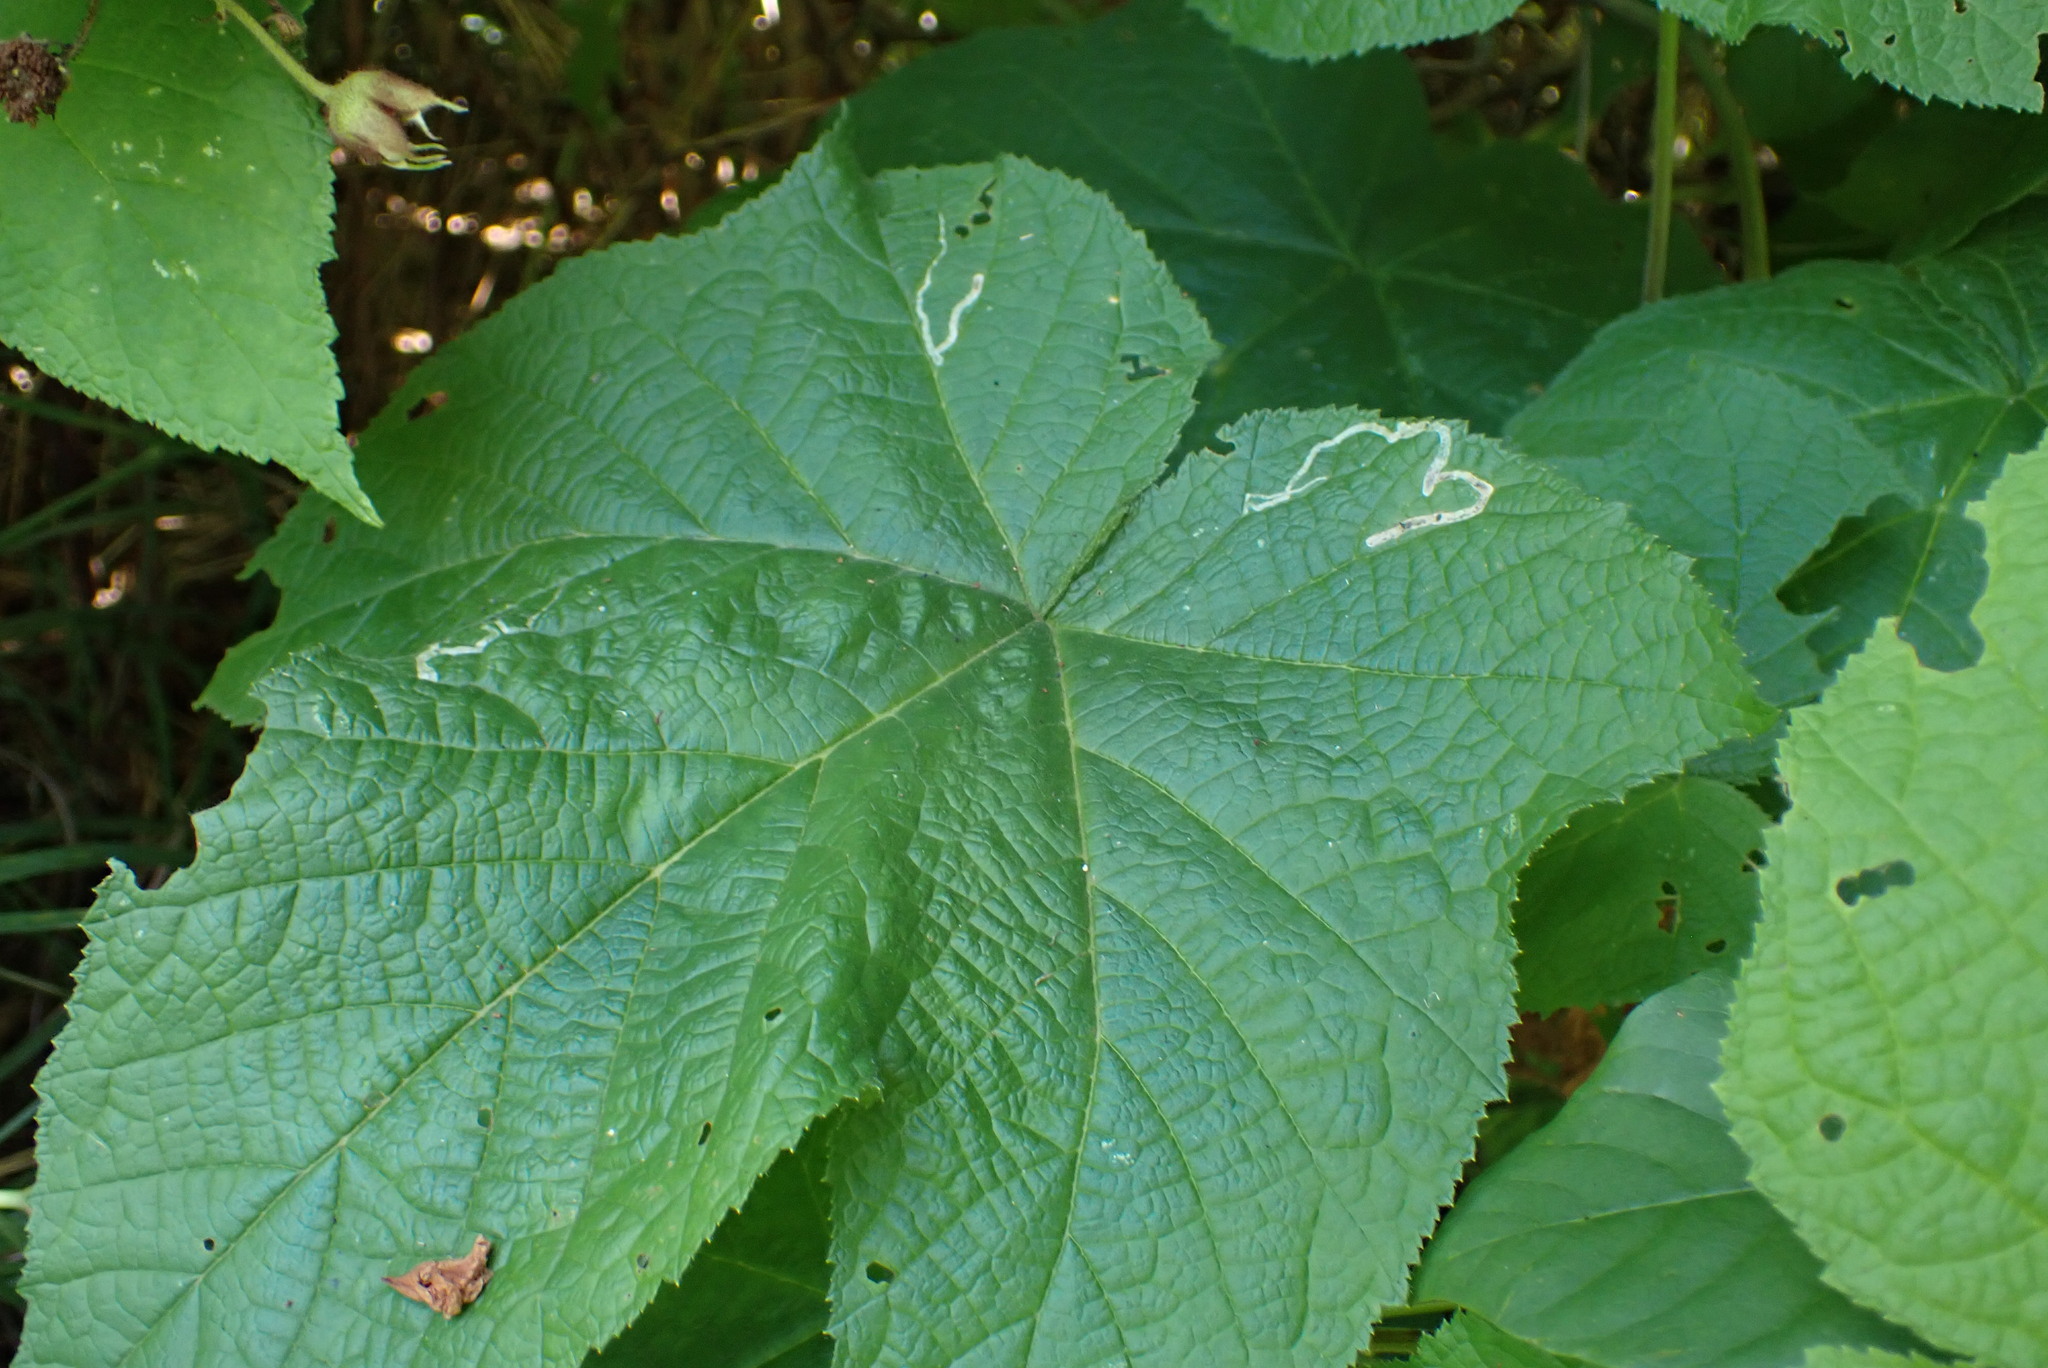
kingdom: Animalia
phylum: Arthropoda
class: Insecta
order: Diptera
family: Agromyzidae
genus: Agromyza
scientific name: Agromyza vockerothi
